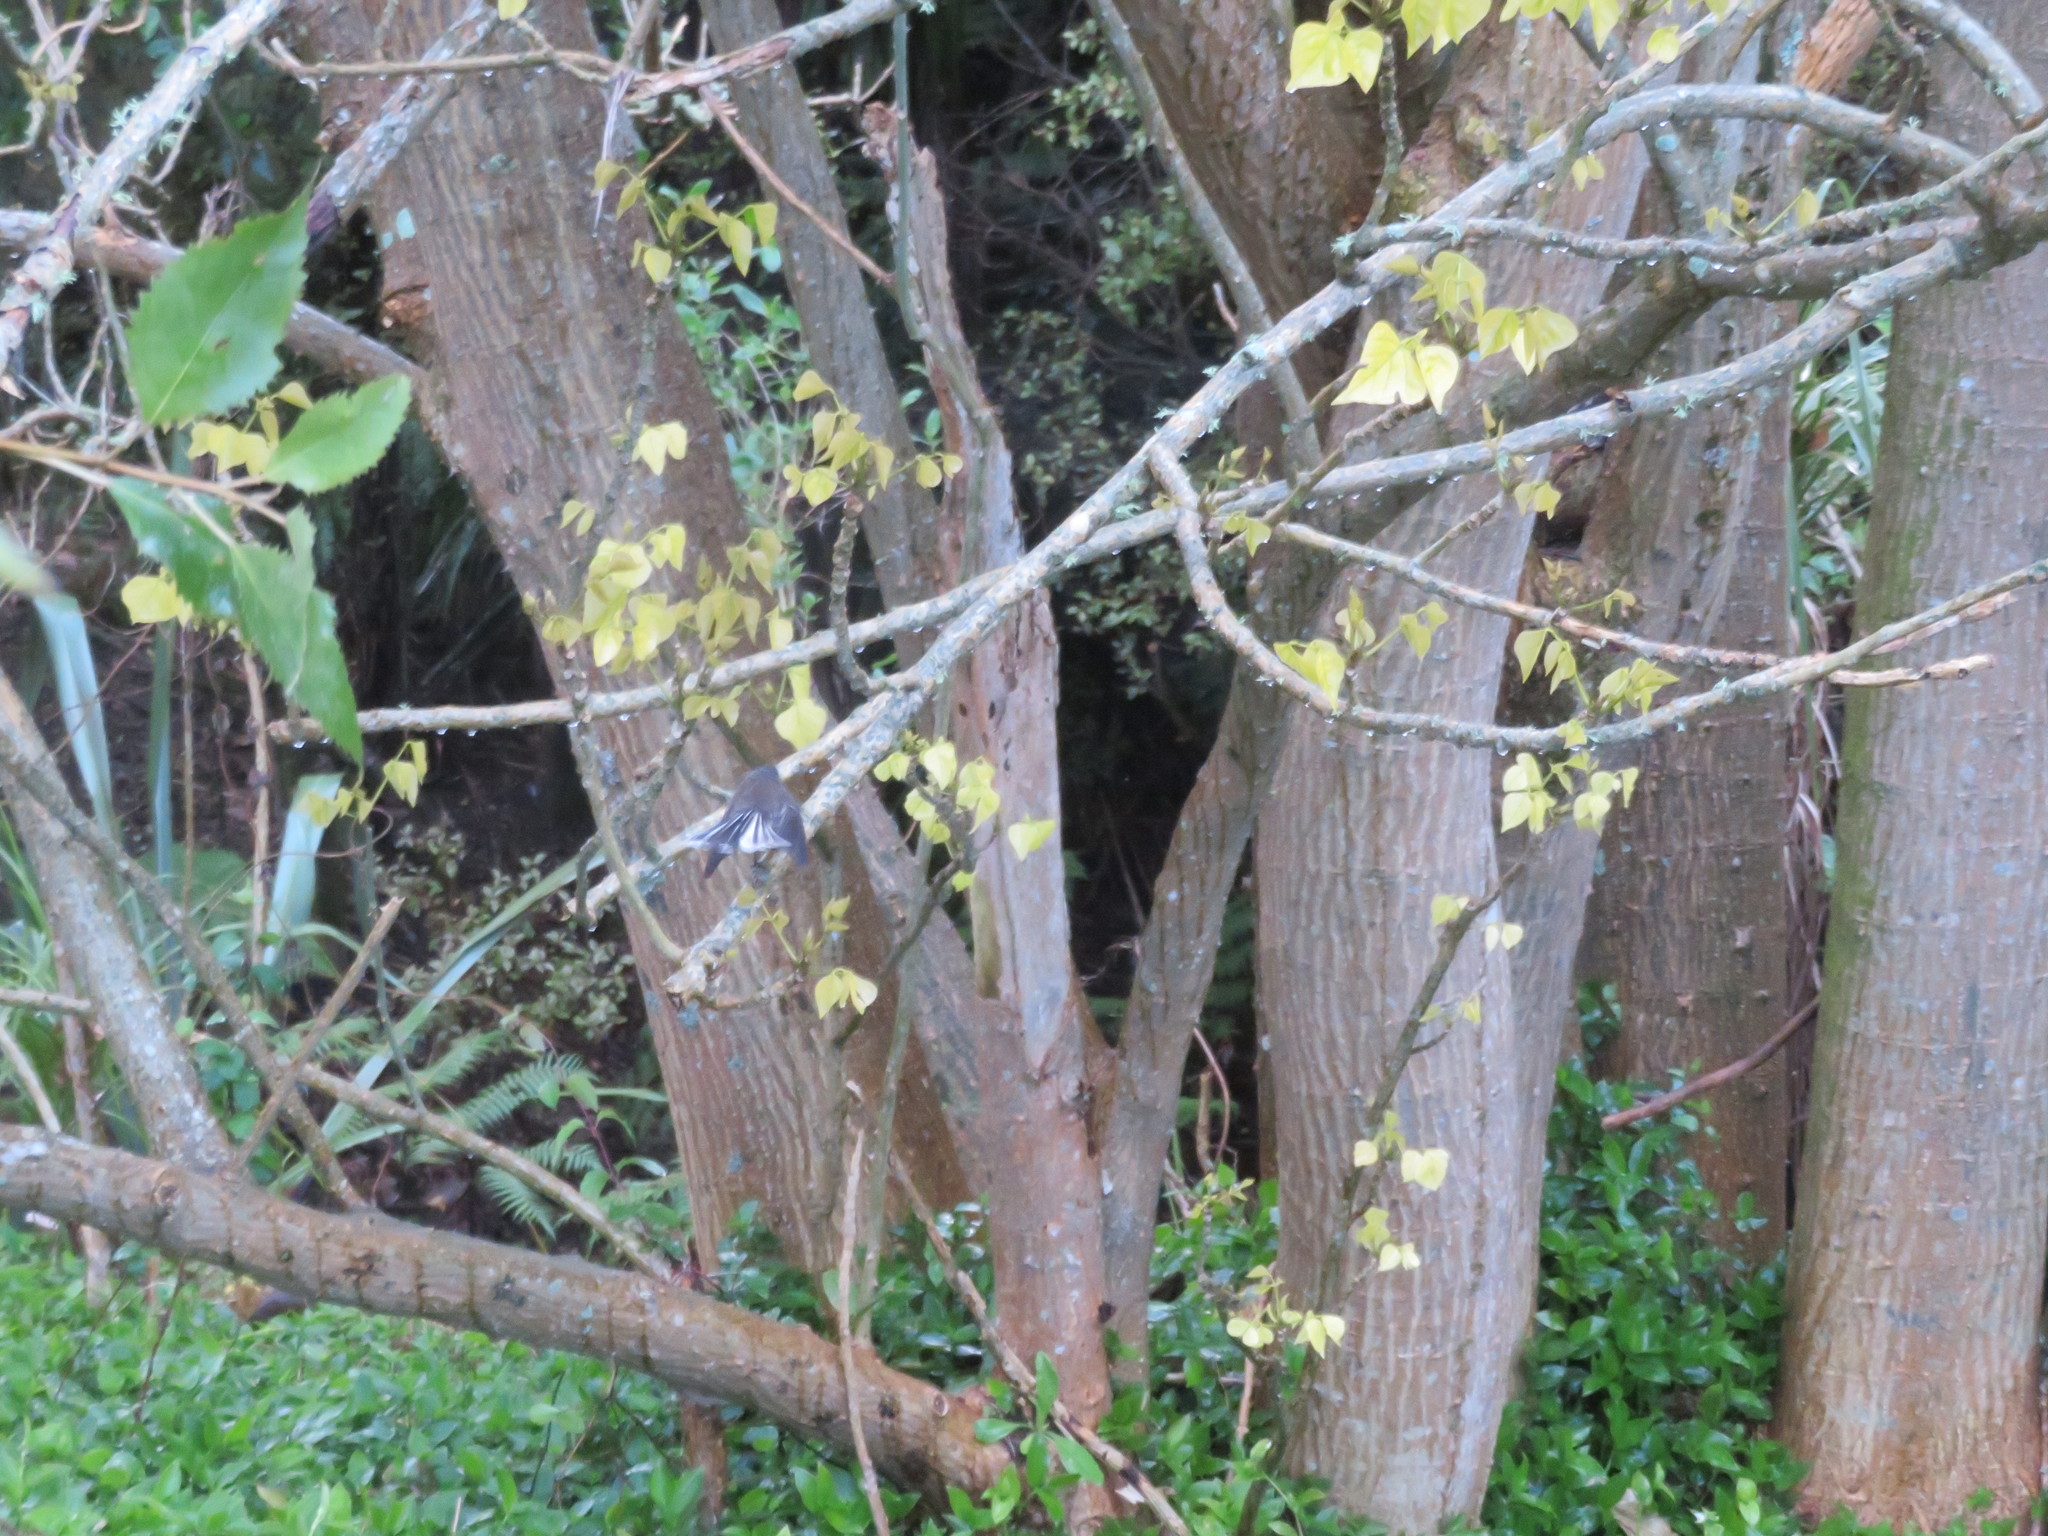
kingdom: Animalia
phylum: Chordata
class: Aves
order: Passeriformes
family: Rhipiduridae
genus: Rhipidura
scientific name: Rhipidura fuliginosa
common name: New zealand fantail
